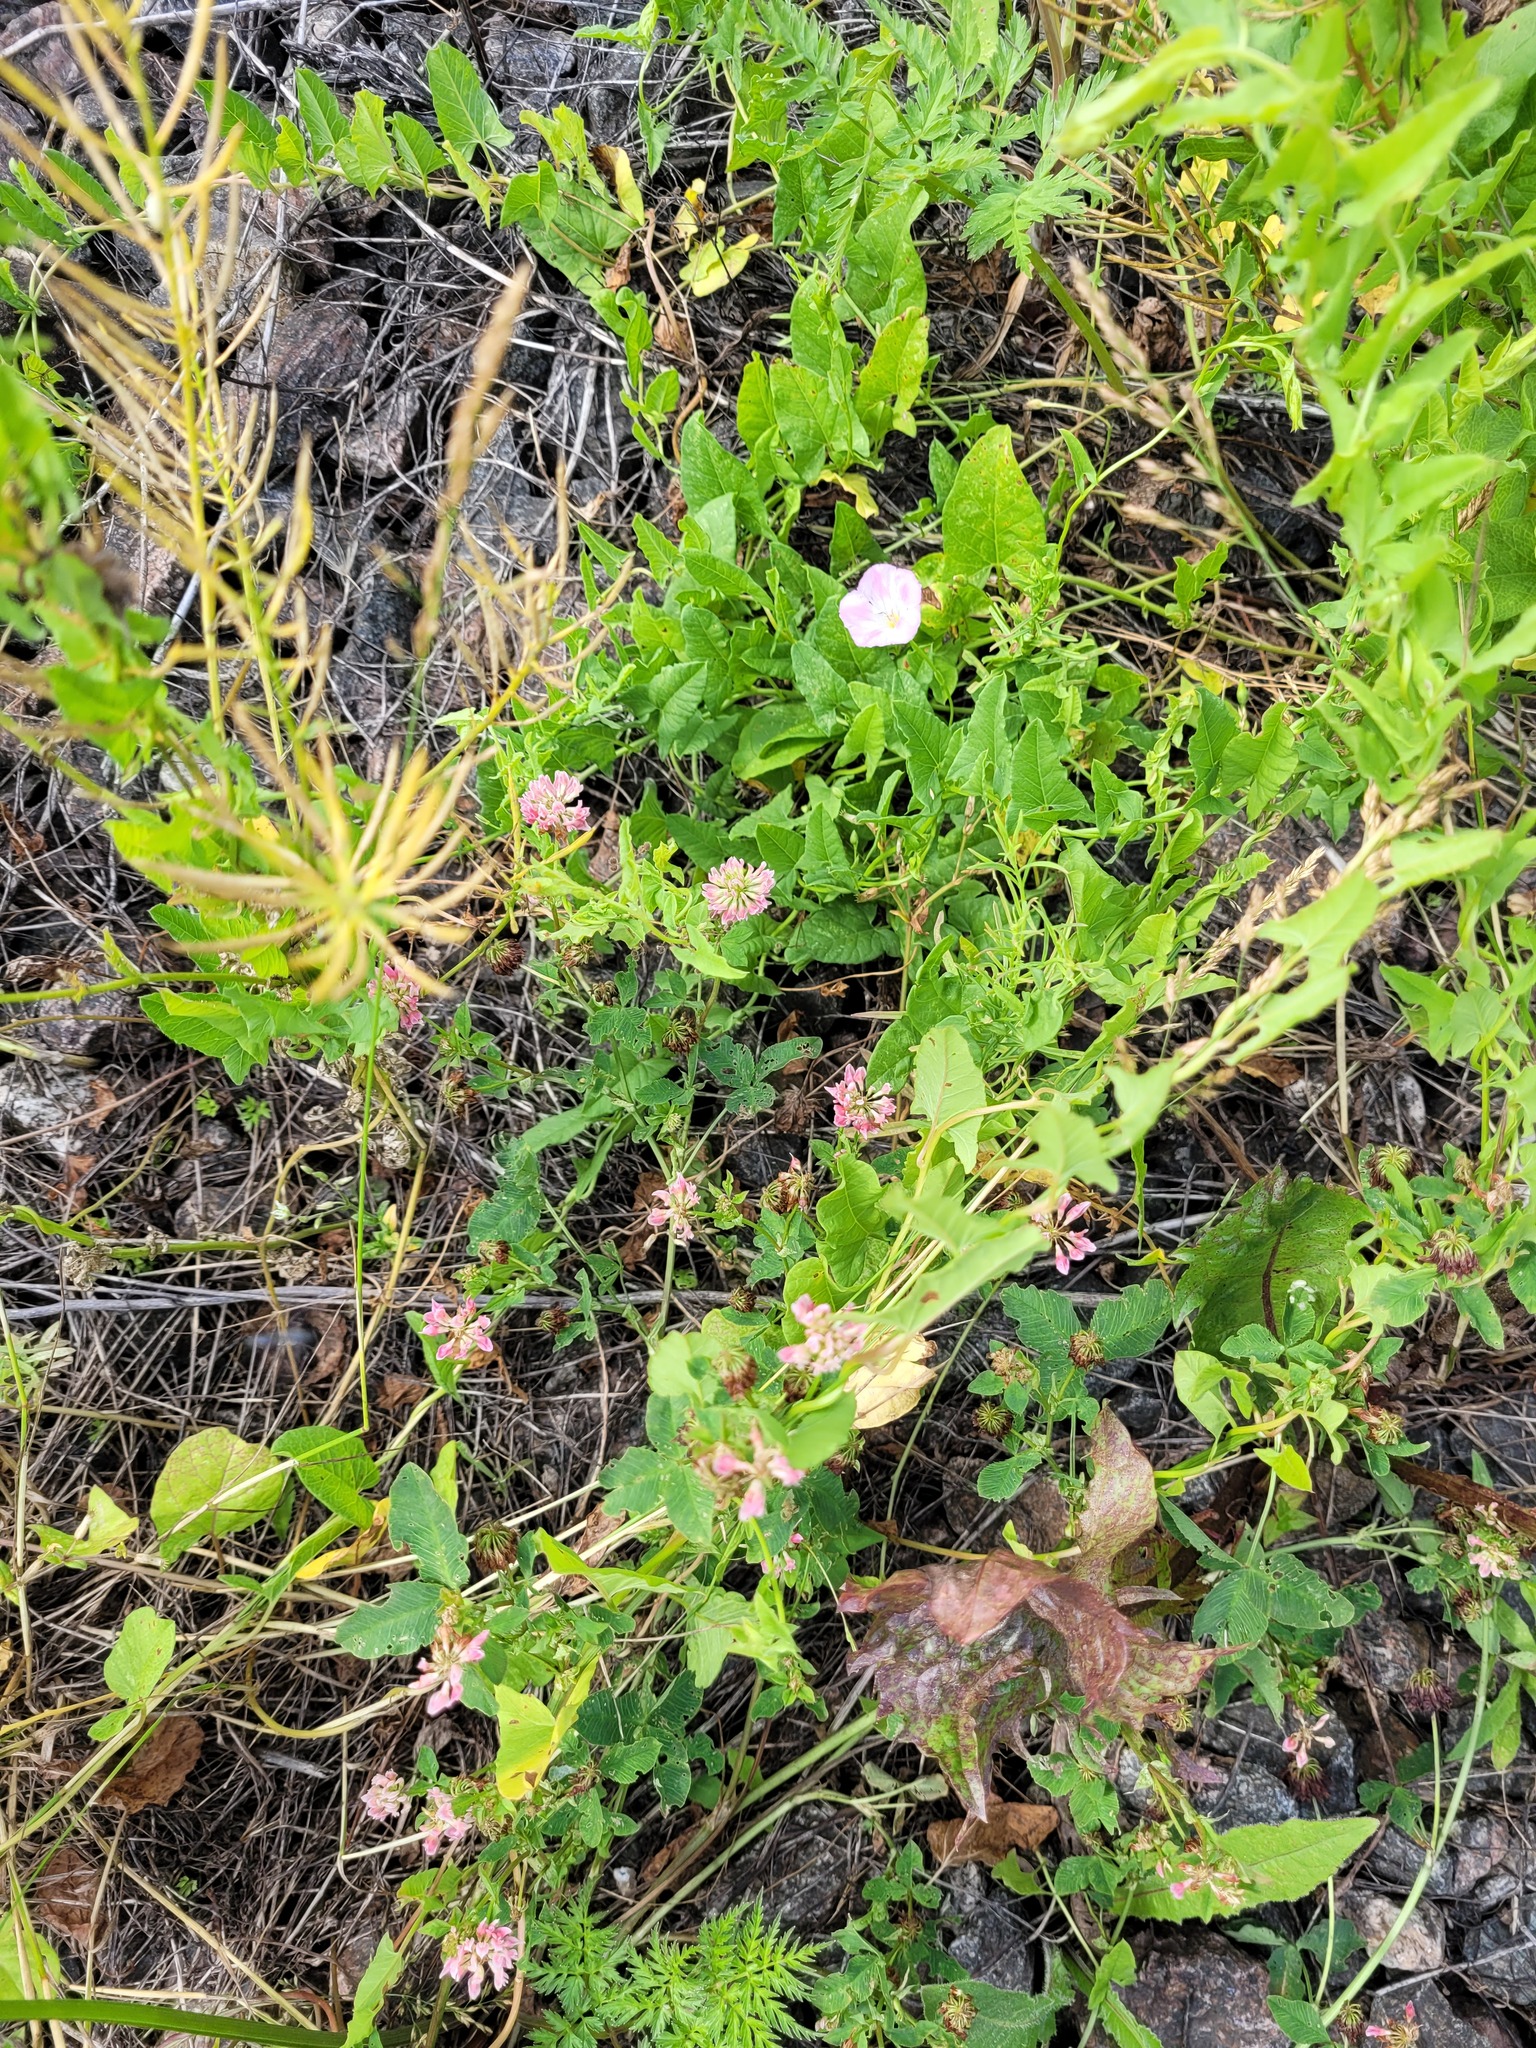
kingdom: Plantae
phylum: Tracheophyta
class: Magnoliopsida
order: Fabales
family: Fabaceae
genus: Trifolium
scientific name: Trifolium hybridum
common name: Alsike clover
